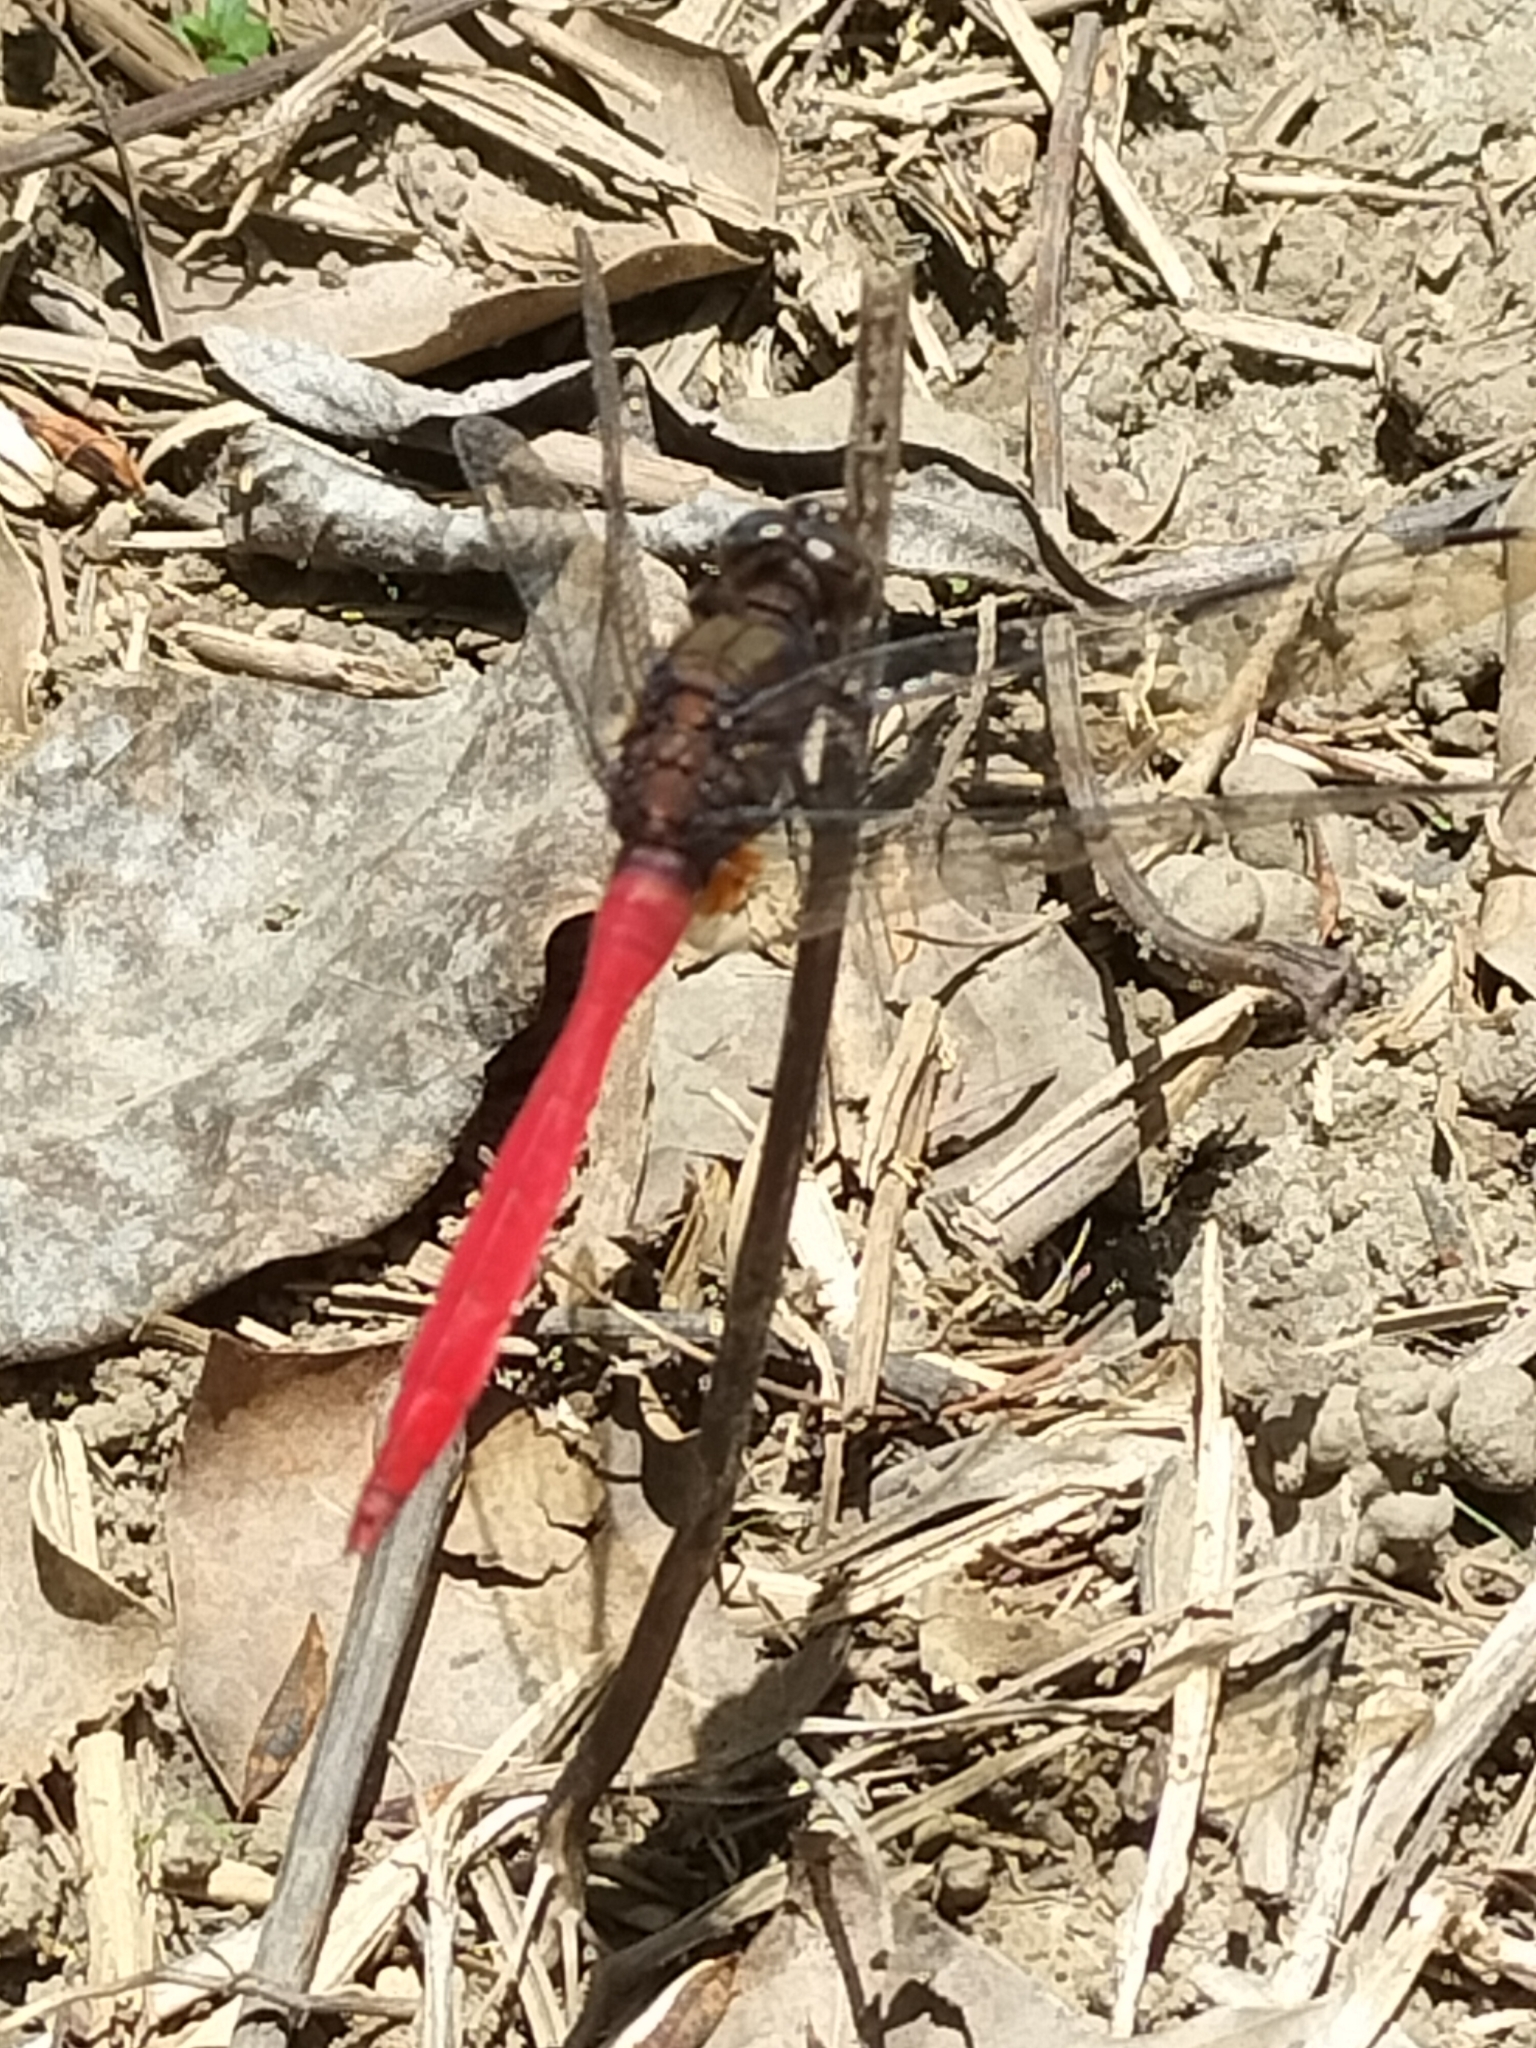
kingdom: Animalia
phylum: Arthropoda
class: Insecta
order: Odonata
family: Libellulidae
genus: Orthetrum
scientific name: Orthetrum villosovittatum
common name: Firery skimmer
